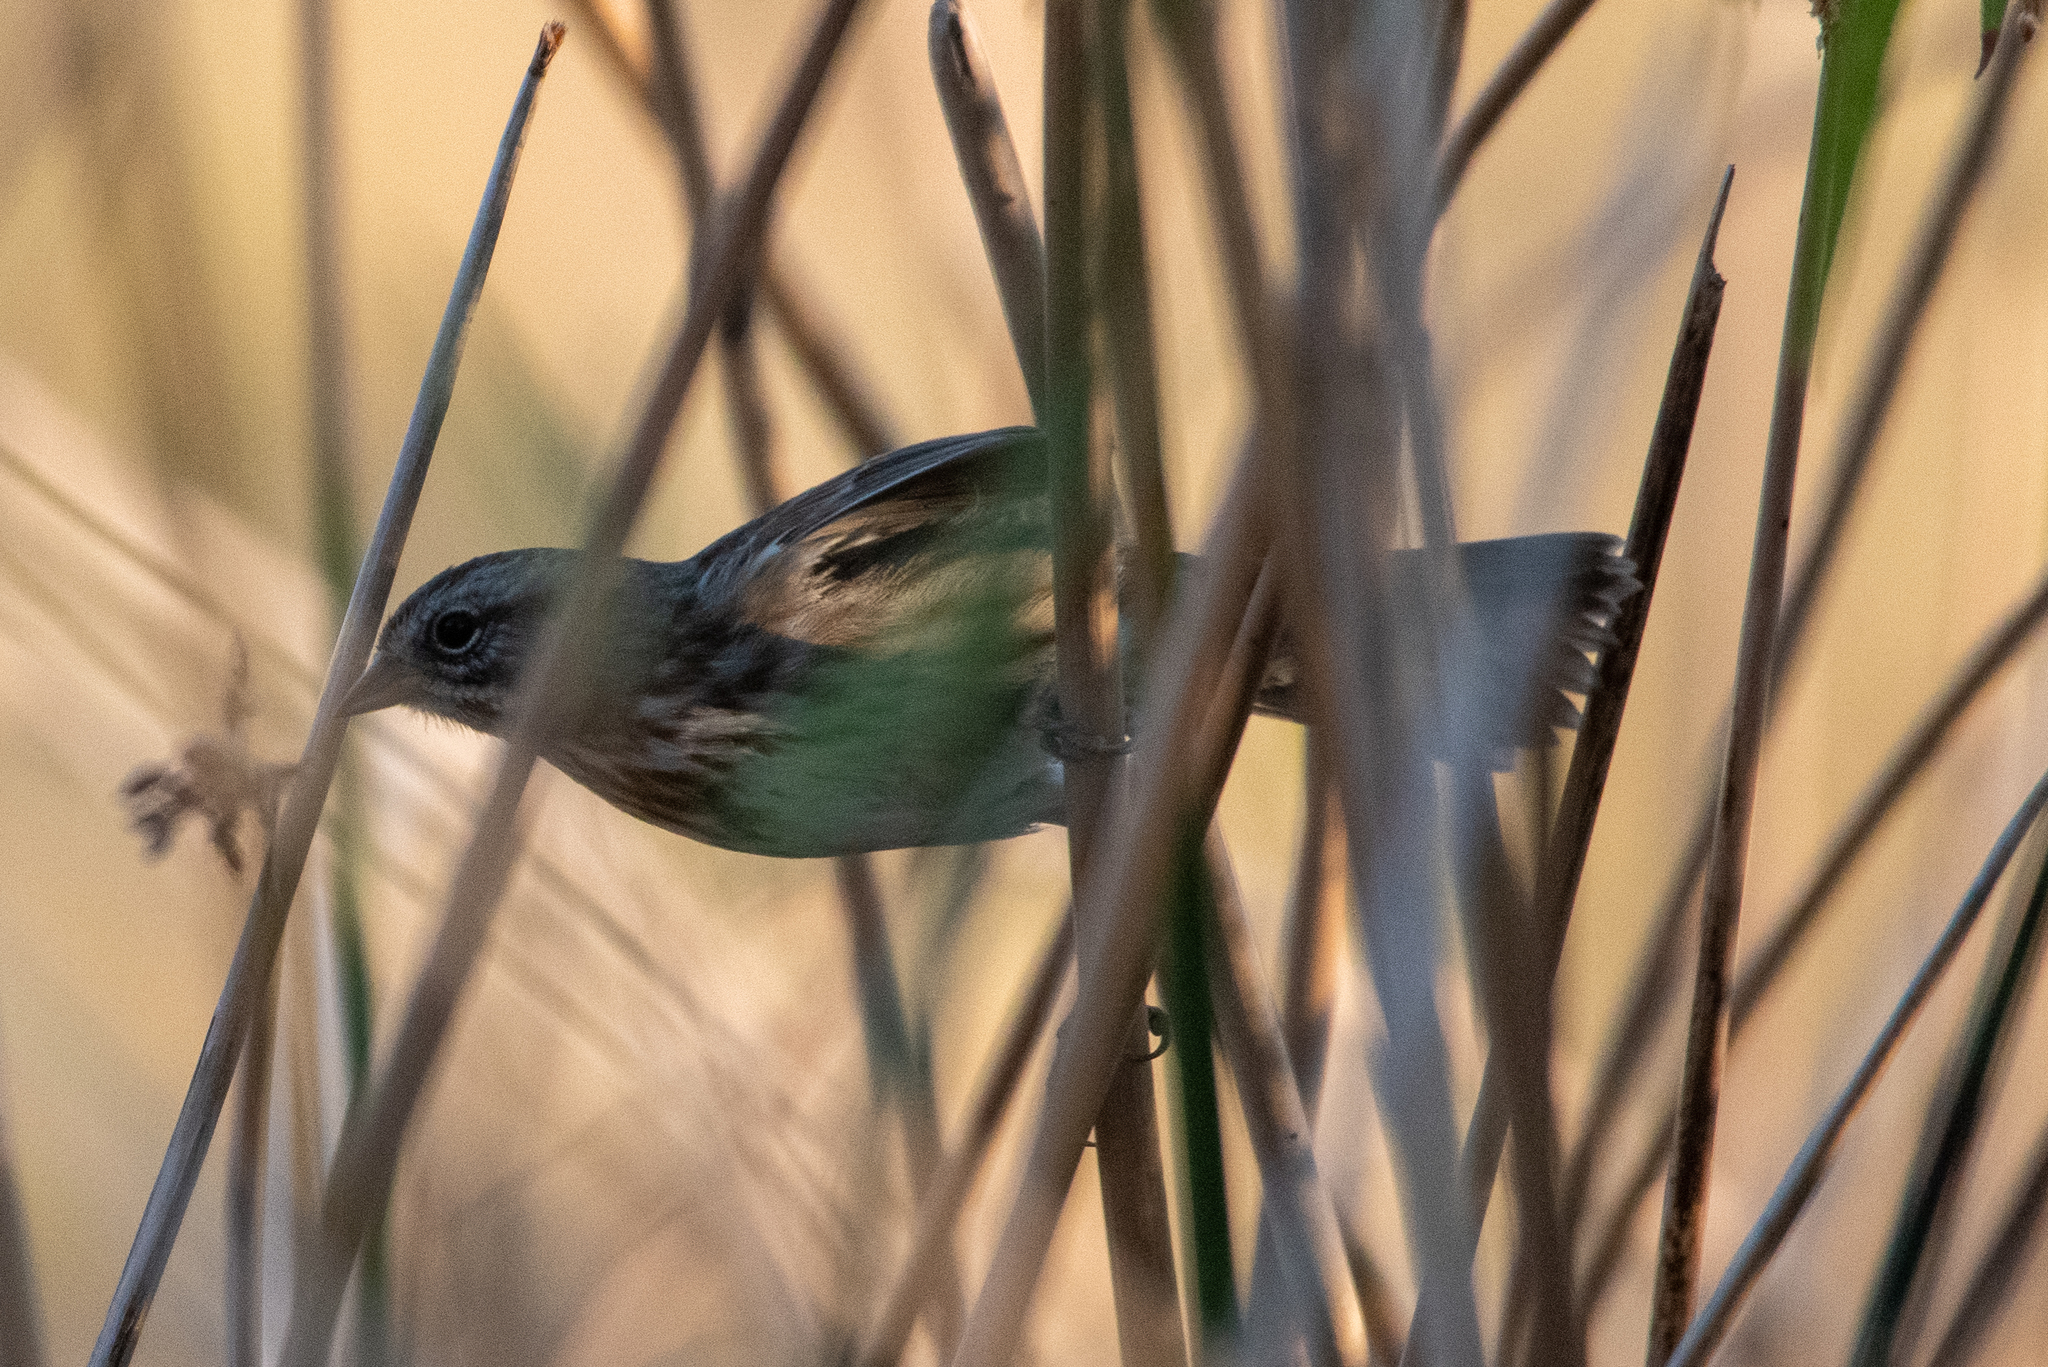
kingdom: Animalia
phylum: Chordata
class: Aves
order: Passeriformes
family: Passerellidae
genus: Melospiza
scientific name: Melospiza melodia
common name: Song sparrow
